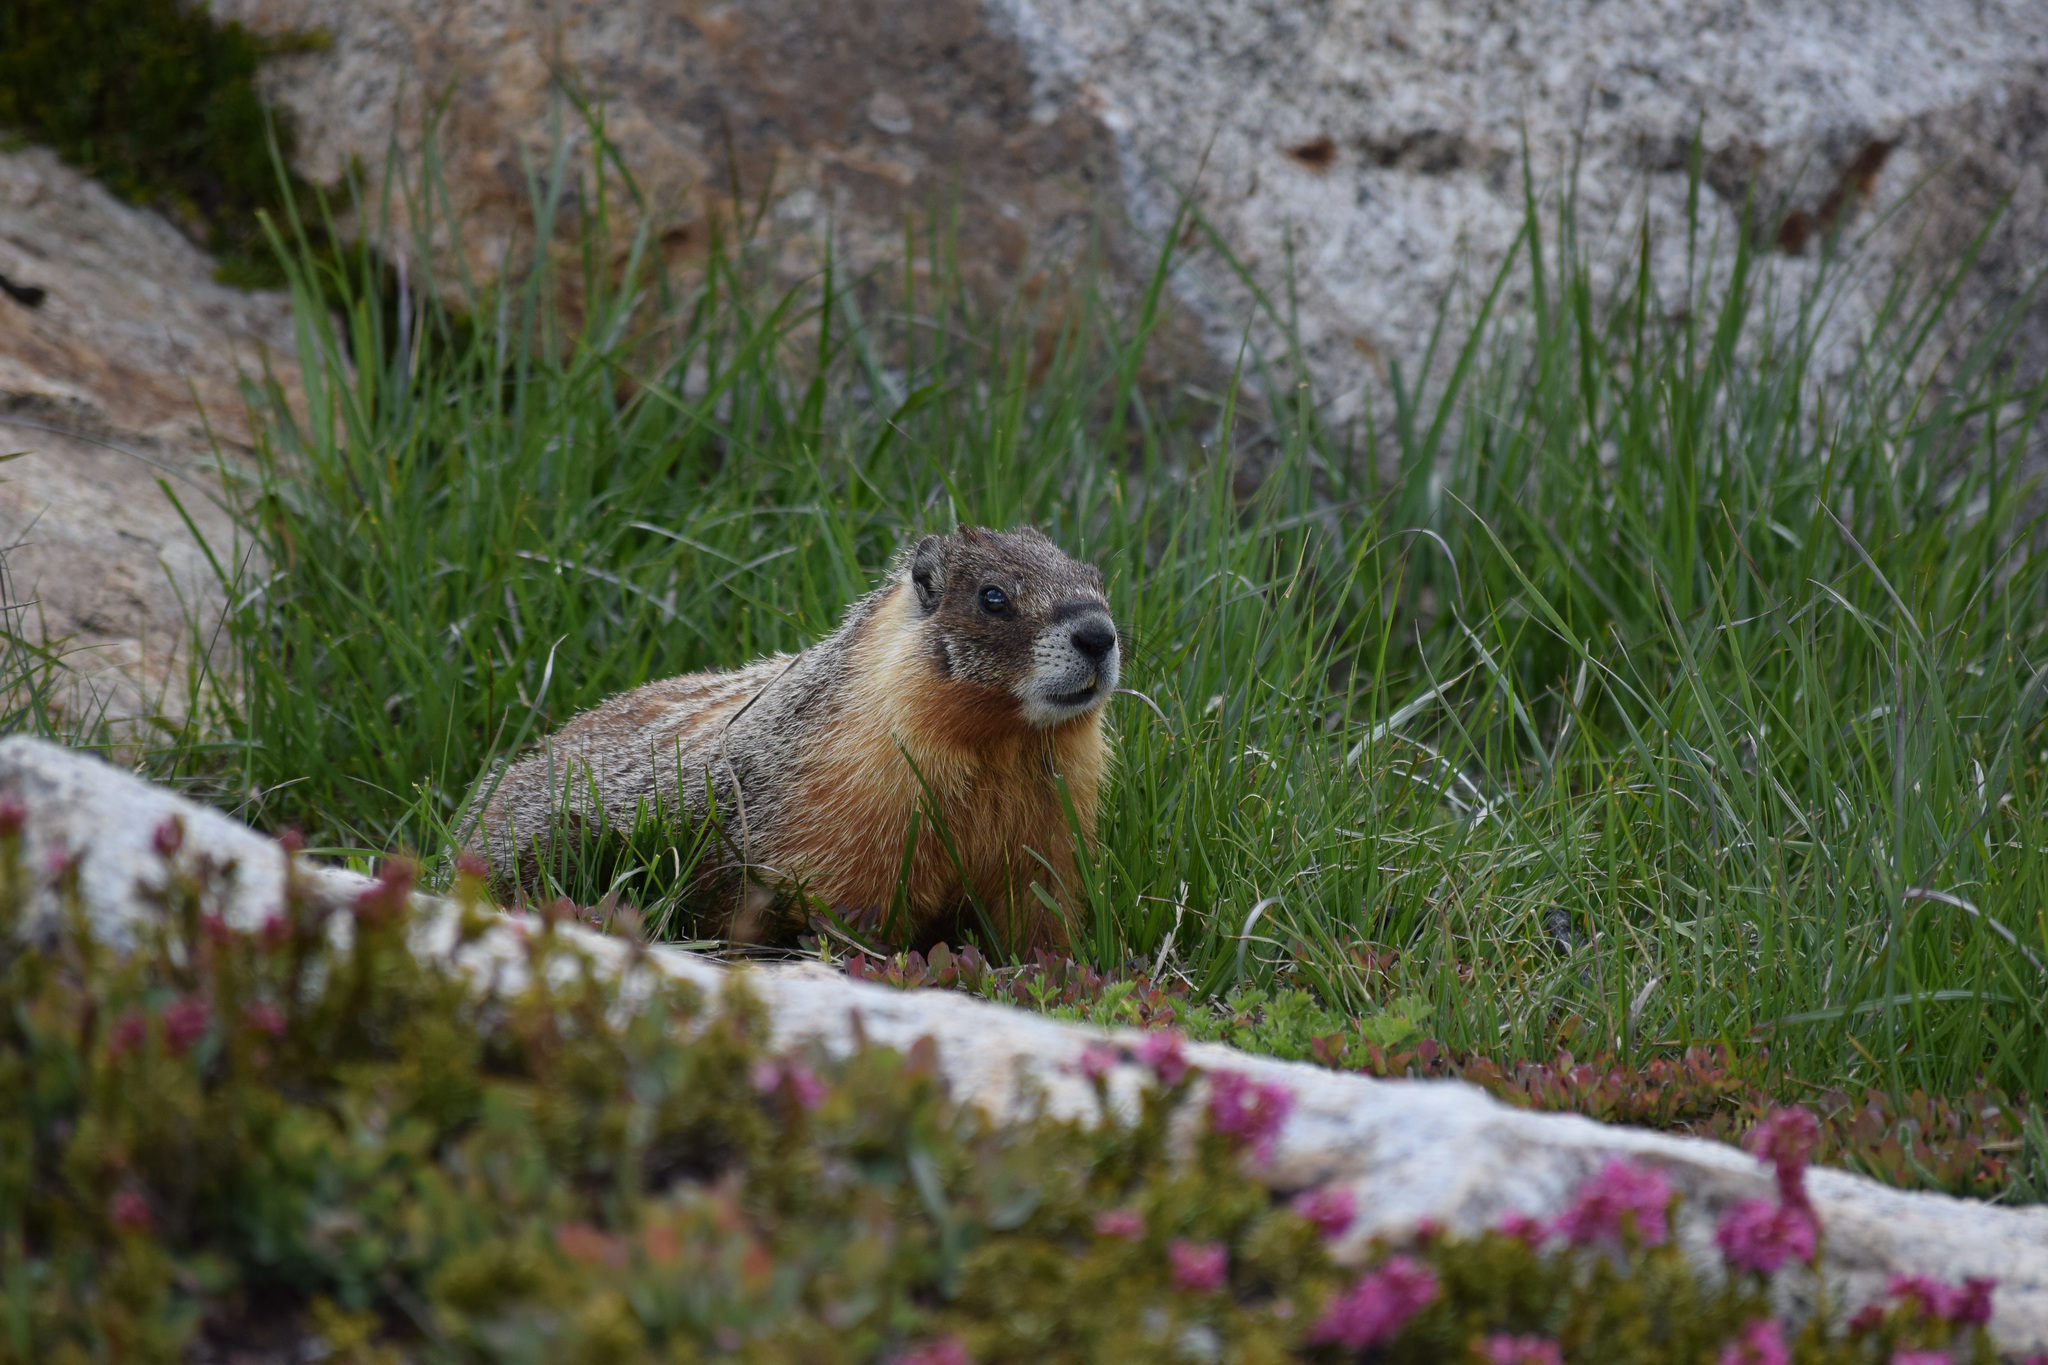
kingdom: Animalia
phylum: Chordata
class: Mammalia
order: Rodentia
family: Sciuridae
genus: Marmota
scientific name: Marmota flaviventris
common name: Yellow-bellied marmot
